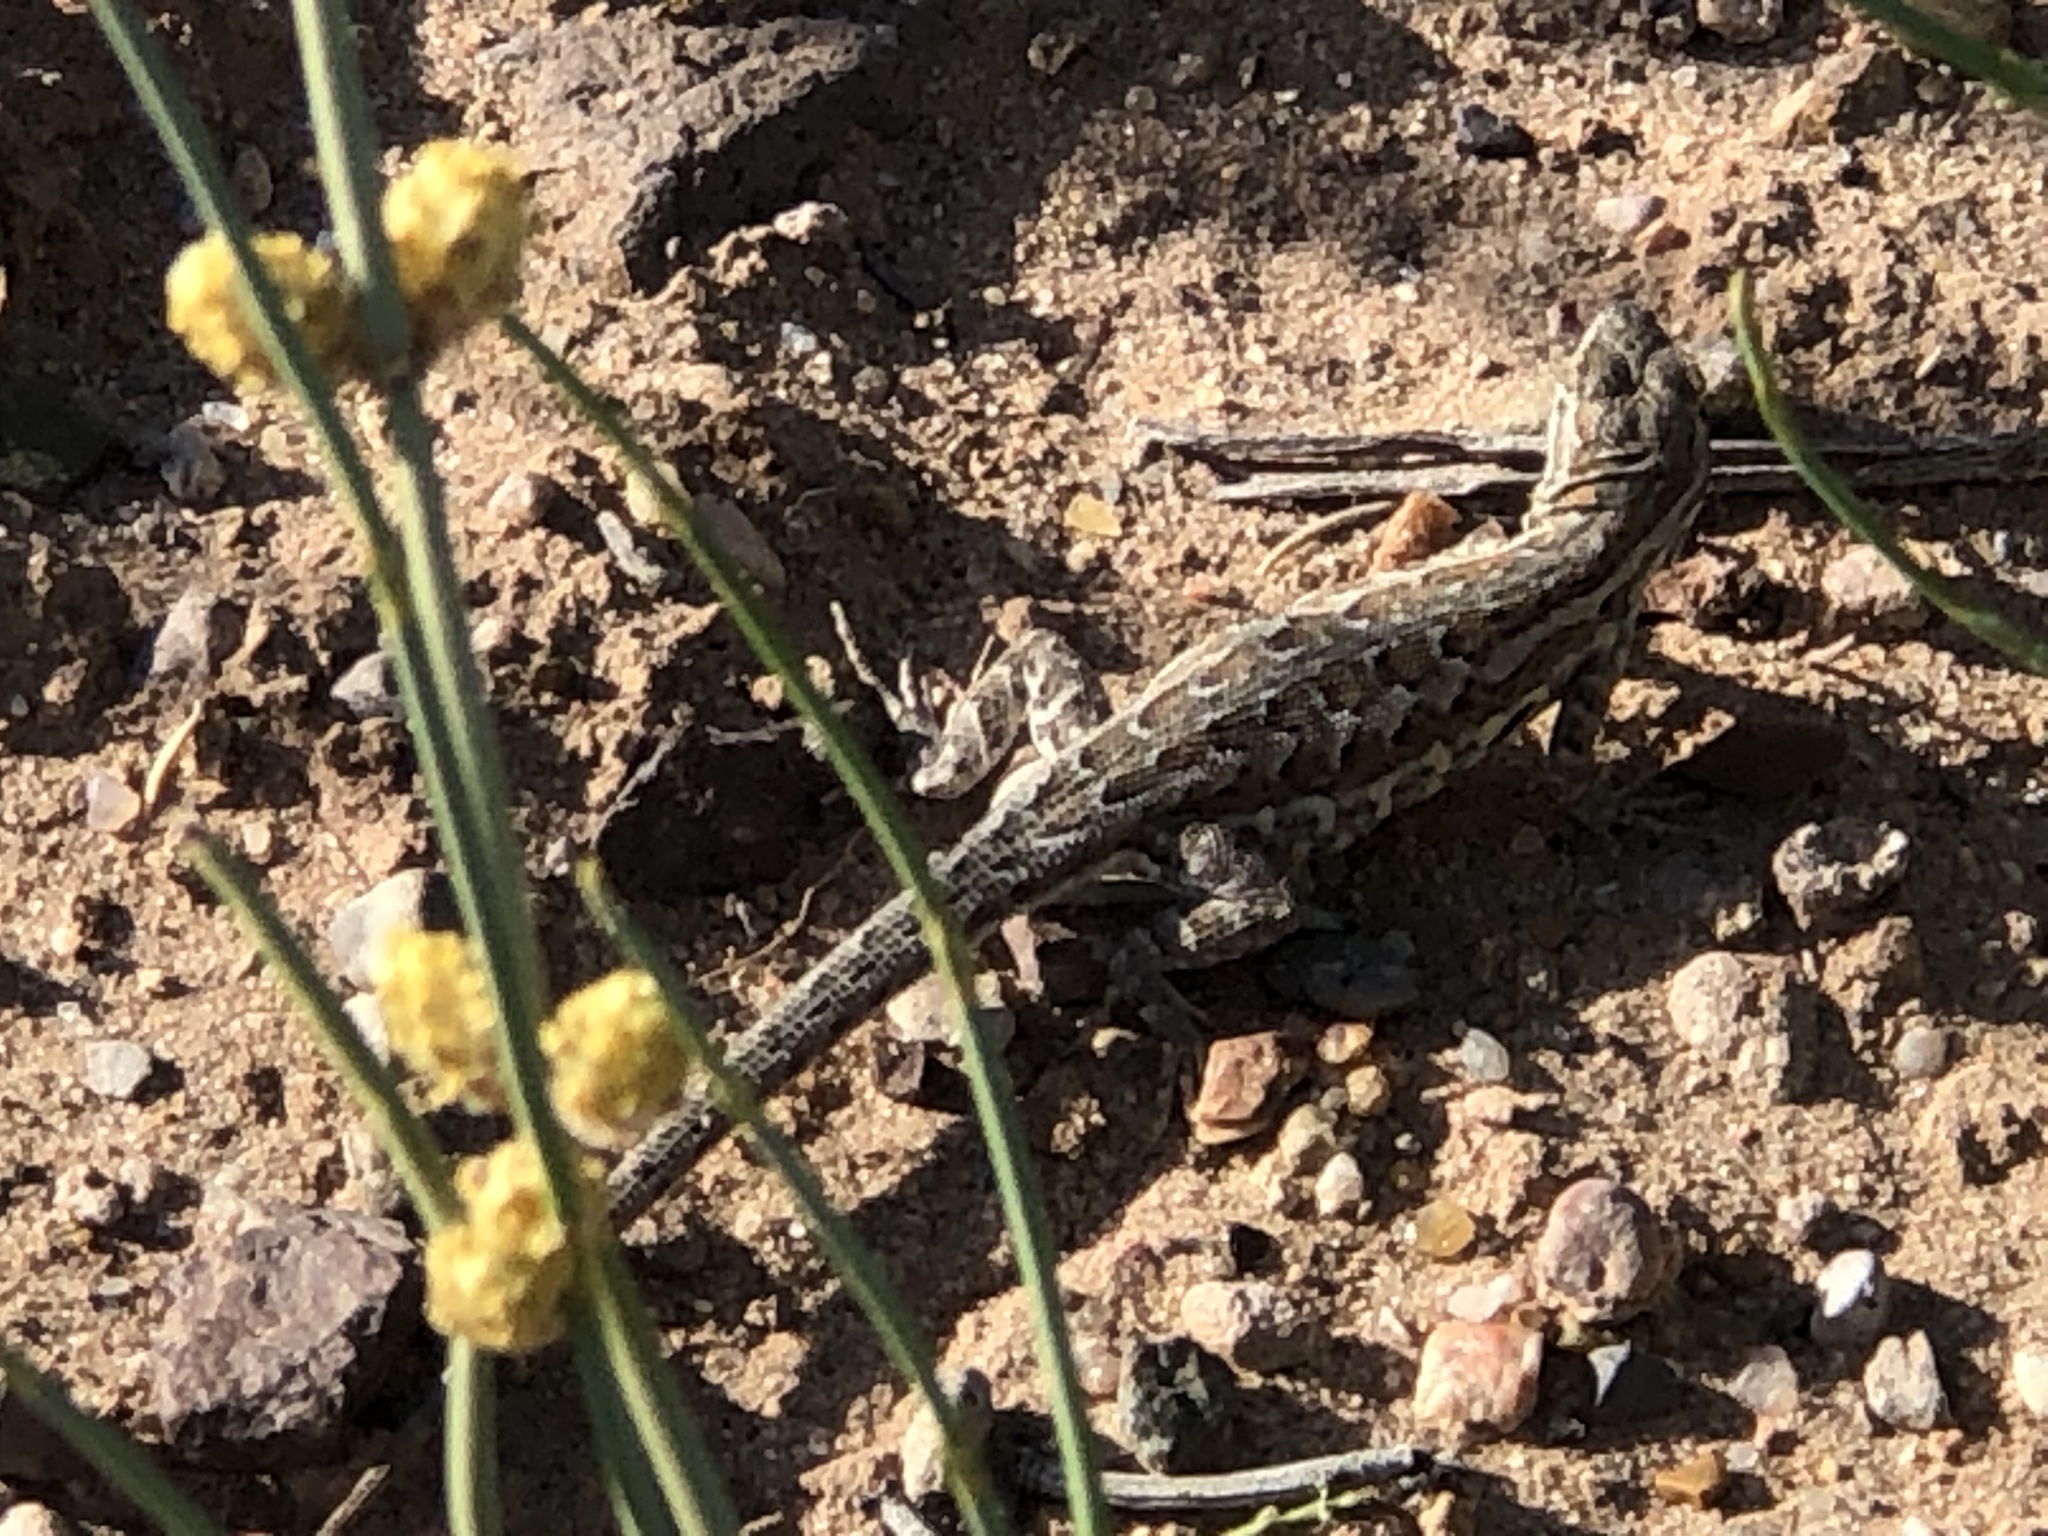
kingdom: Animalia
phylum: Chordata
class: Squamata
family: Phrynosomatidae
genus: Uta
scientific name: Uta stansburiana
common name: Side-blotched lizard
